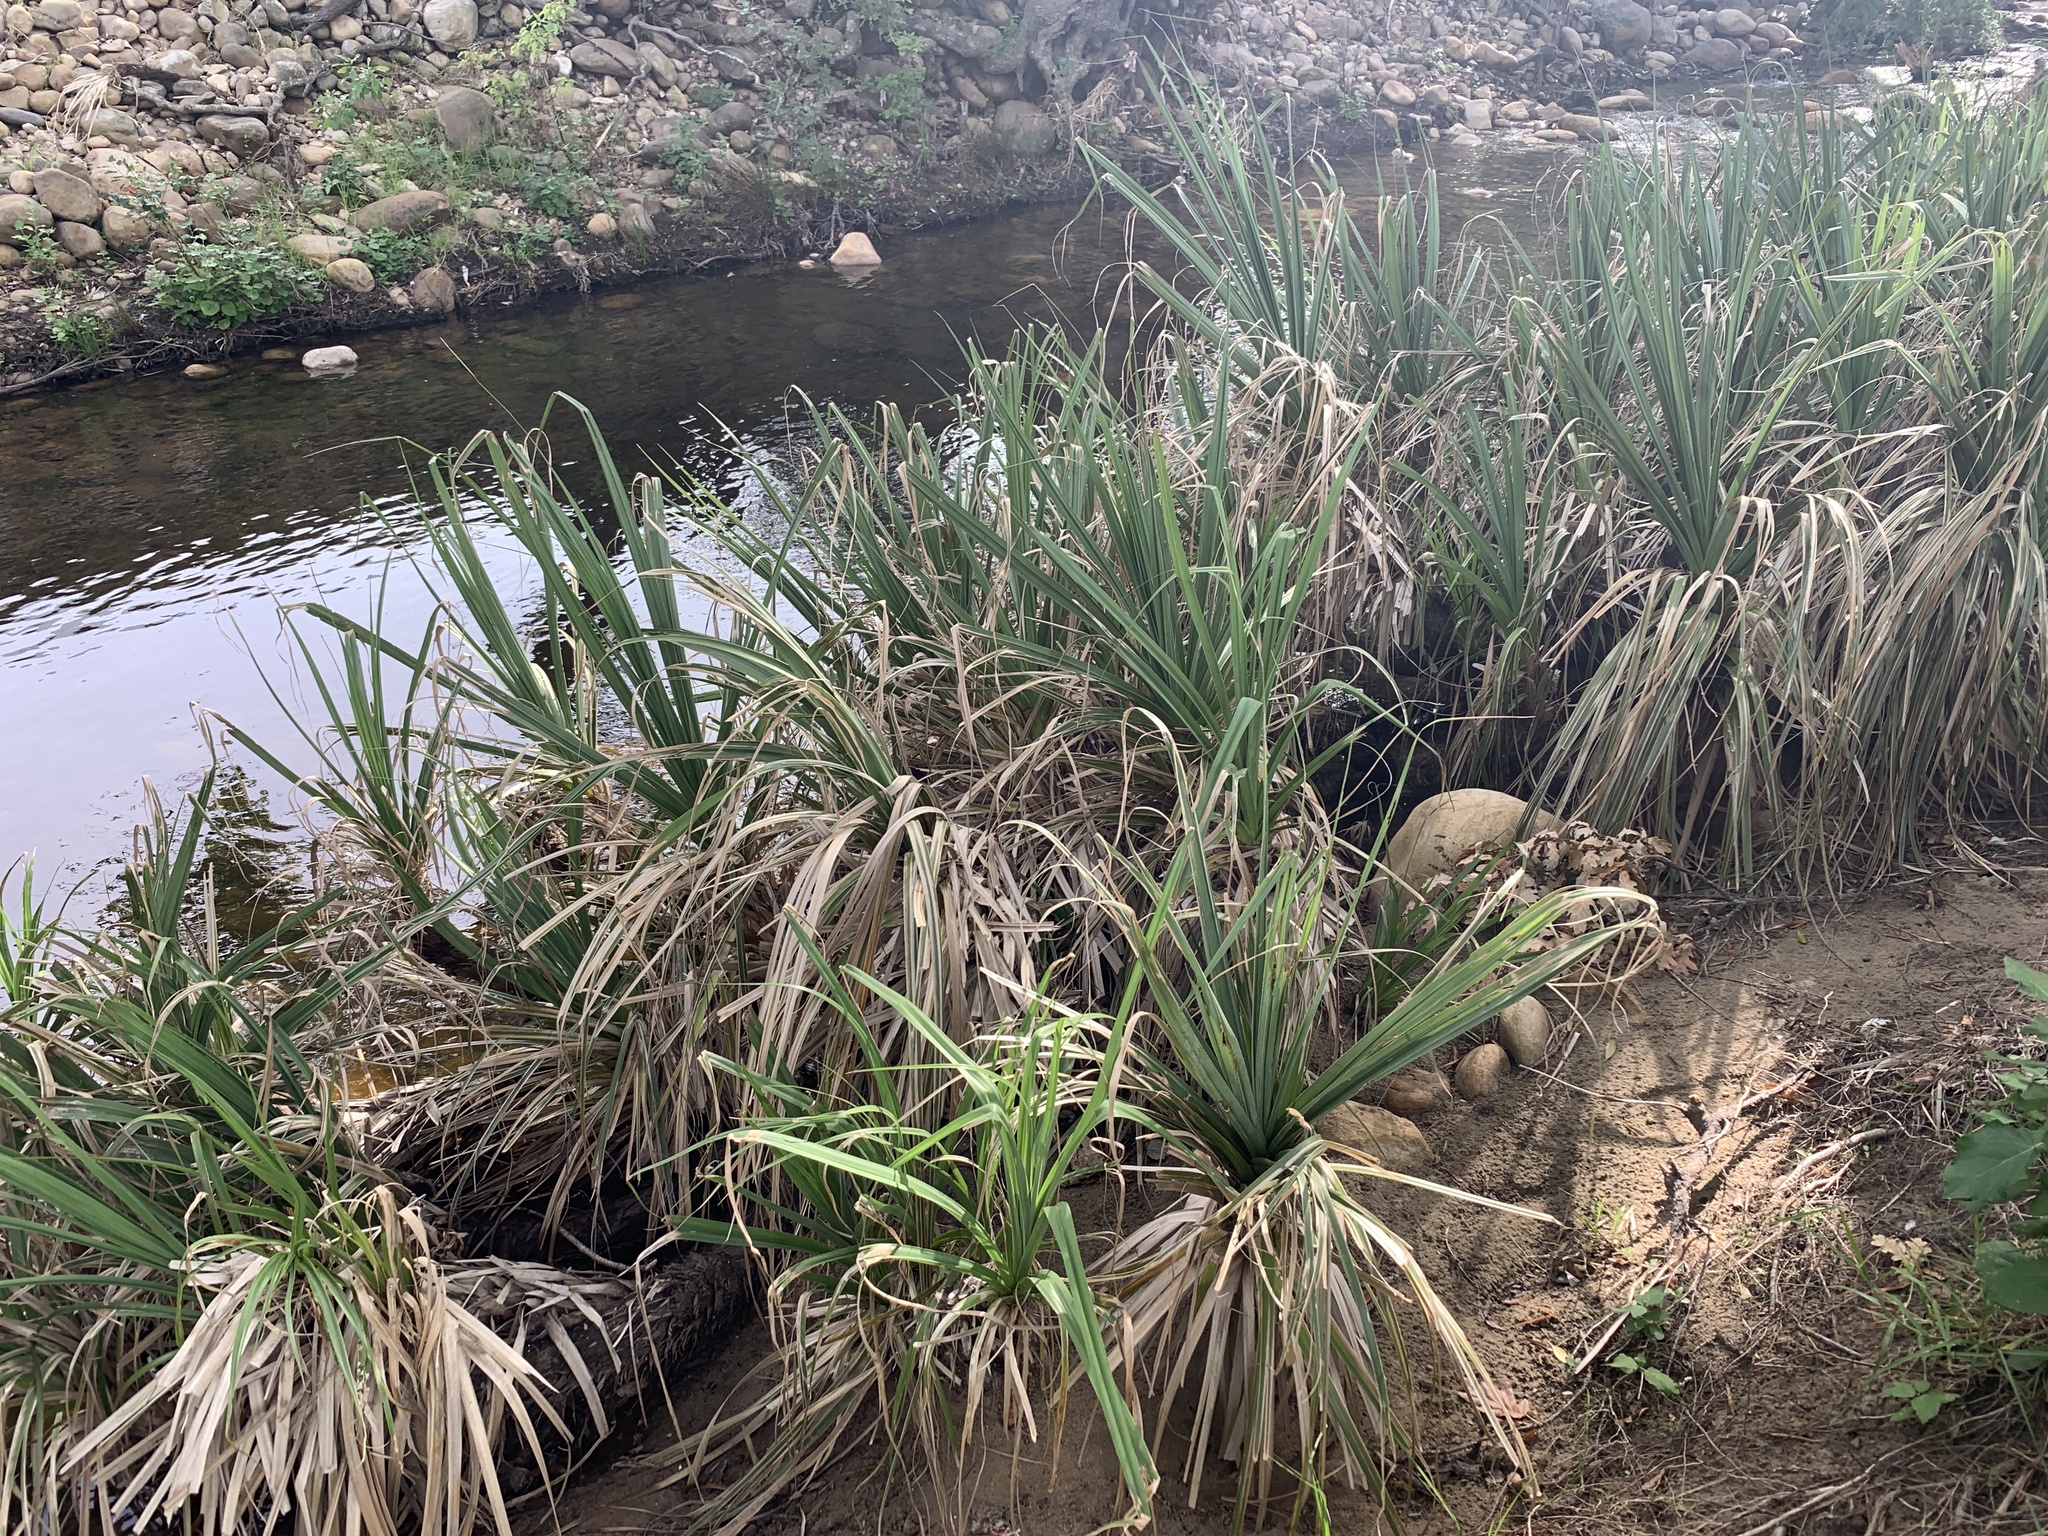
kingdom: Plantae
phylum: Tracheophyta
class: Liliopsida
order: Poales
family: Thurniaceae
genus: Prionium
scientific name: Prionium serratum
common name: Palmiet
